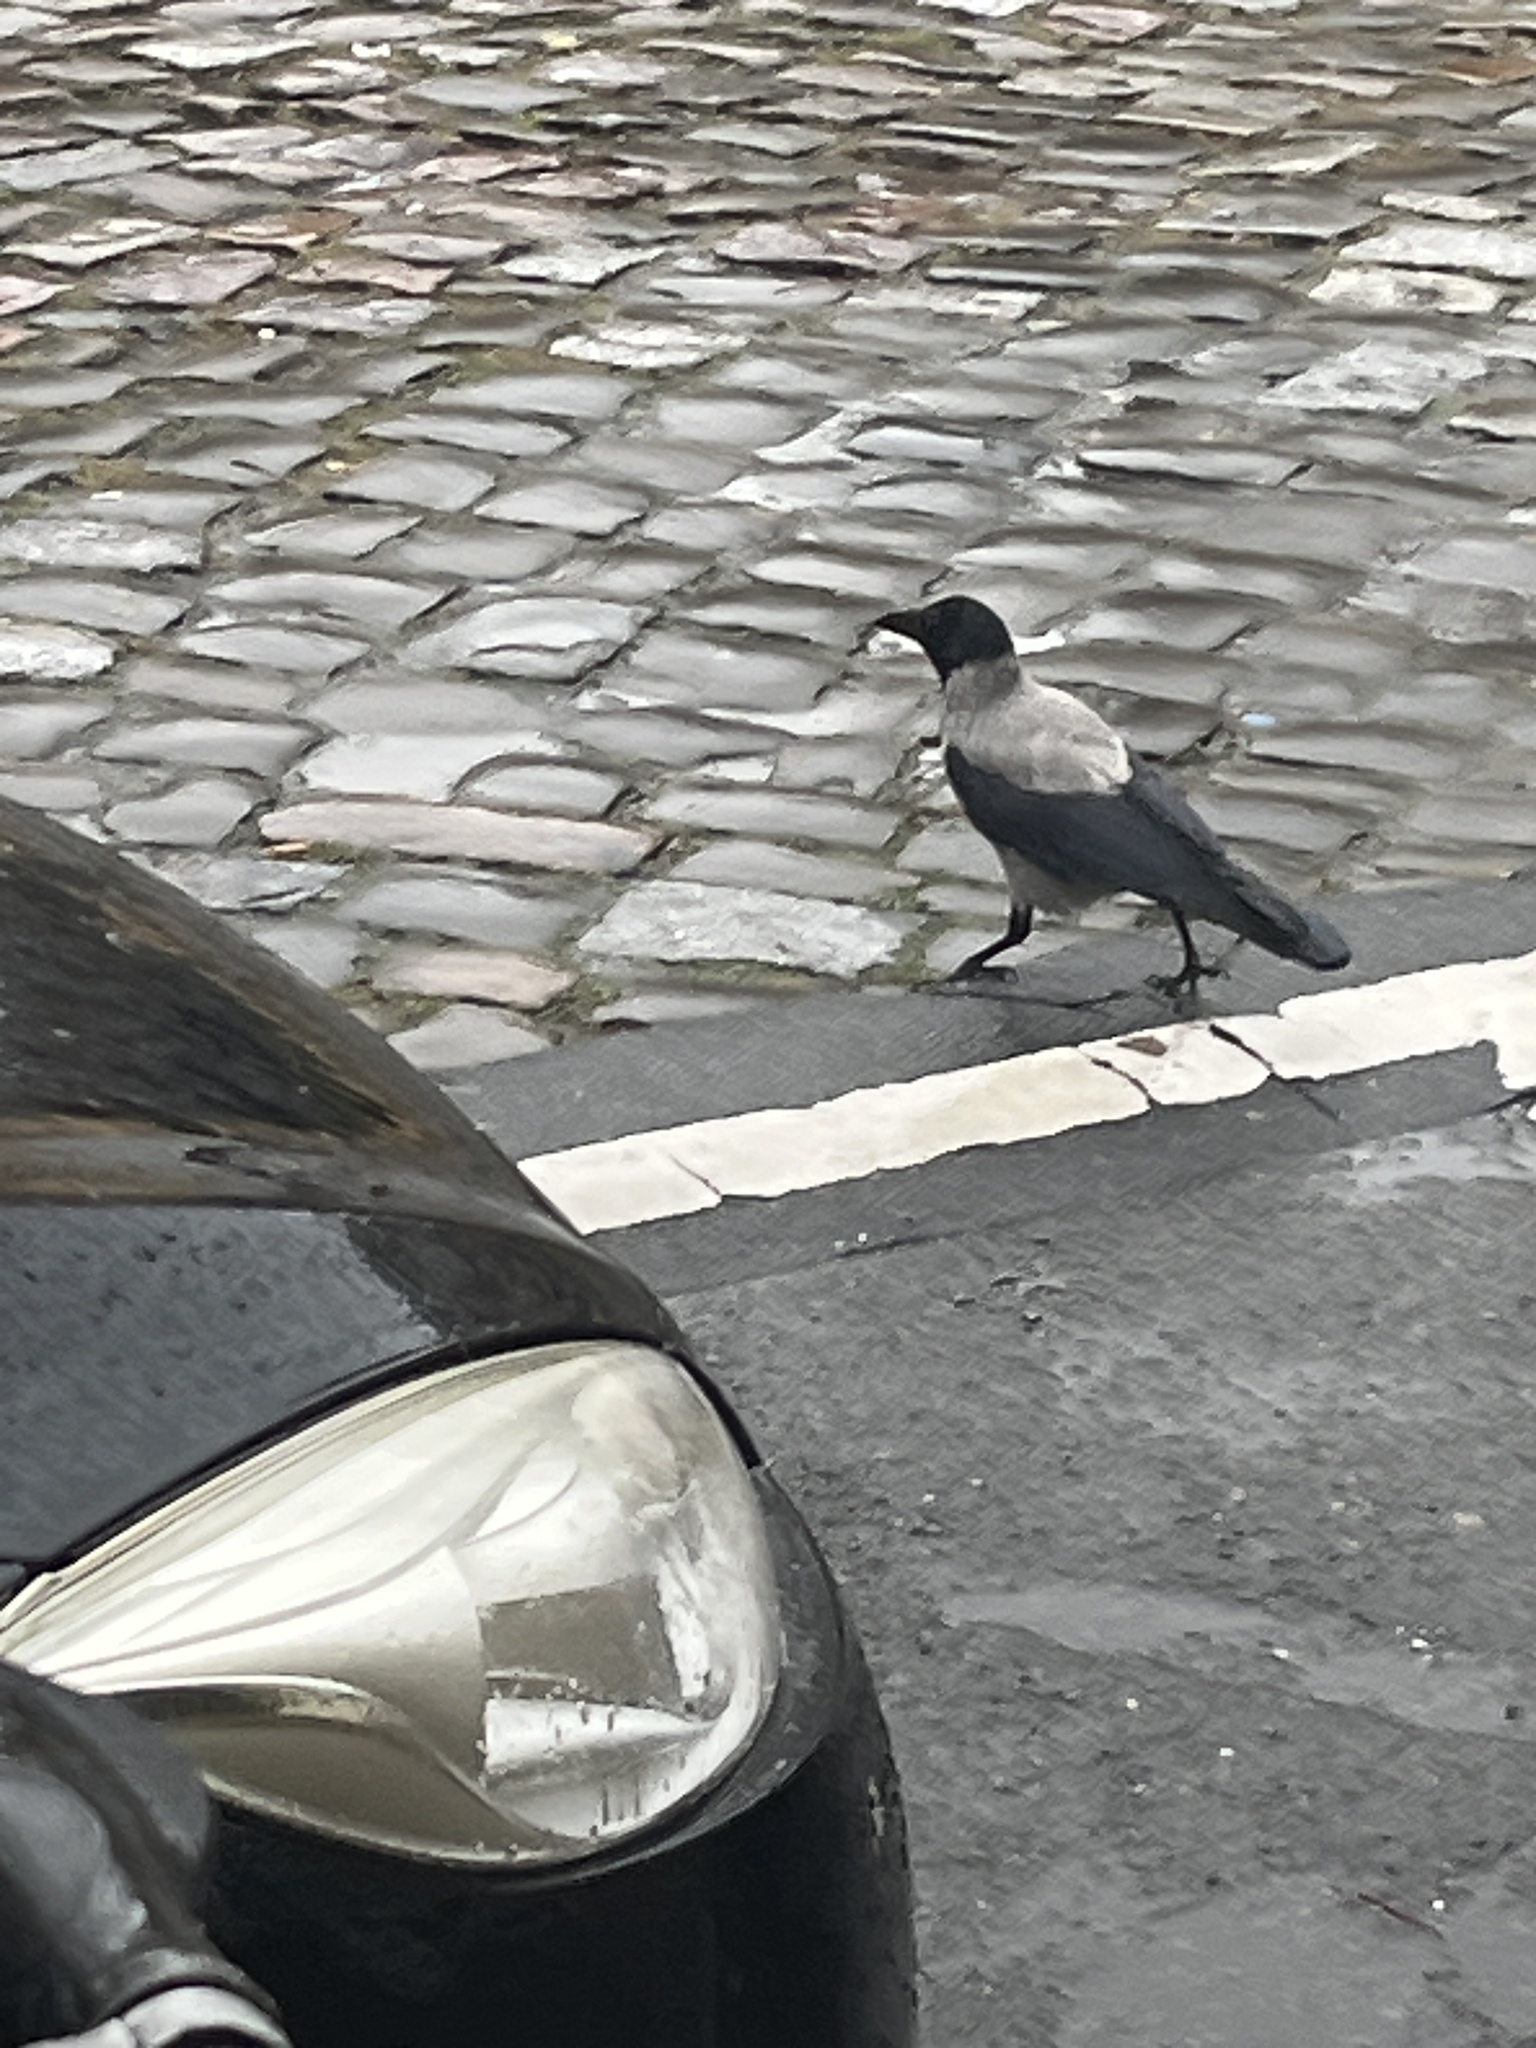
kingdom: Animalia
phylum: Chordata
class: Aves
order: Passeriformes
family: Corvidae
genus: Corvus
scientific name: Corvus cornix
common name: Hooded crow
